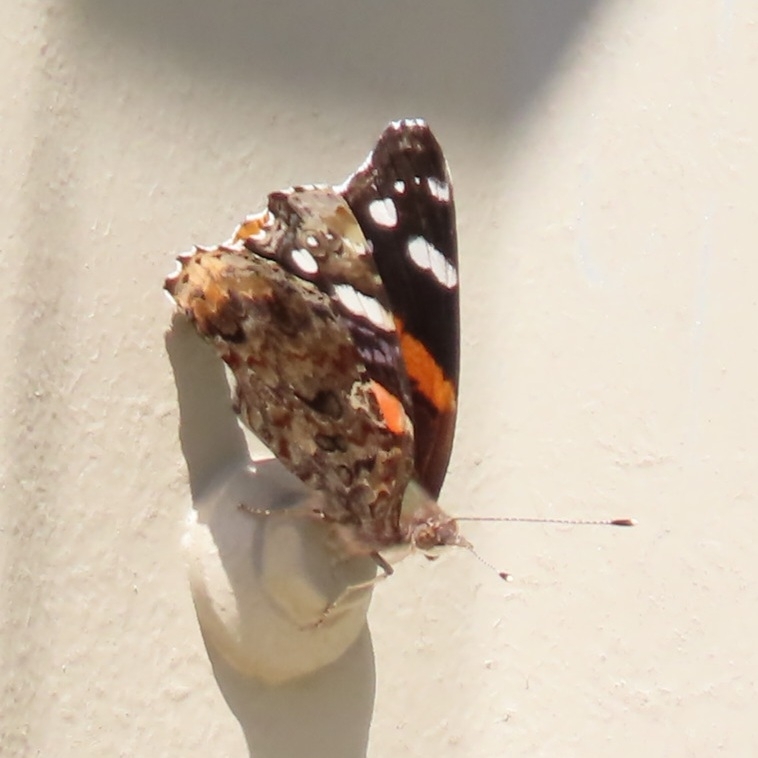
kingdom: Animalia
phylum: Arthropoda
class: Insecta
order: Lepidoptera
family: Nymphalidae
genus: Vanessa
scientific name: Vanessa atalanta
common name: Red admiral
